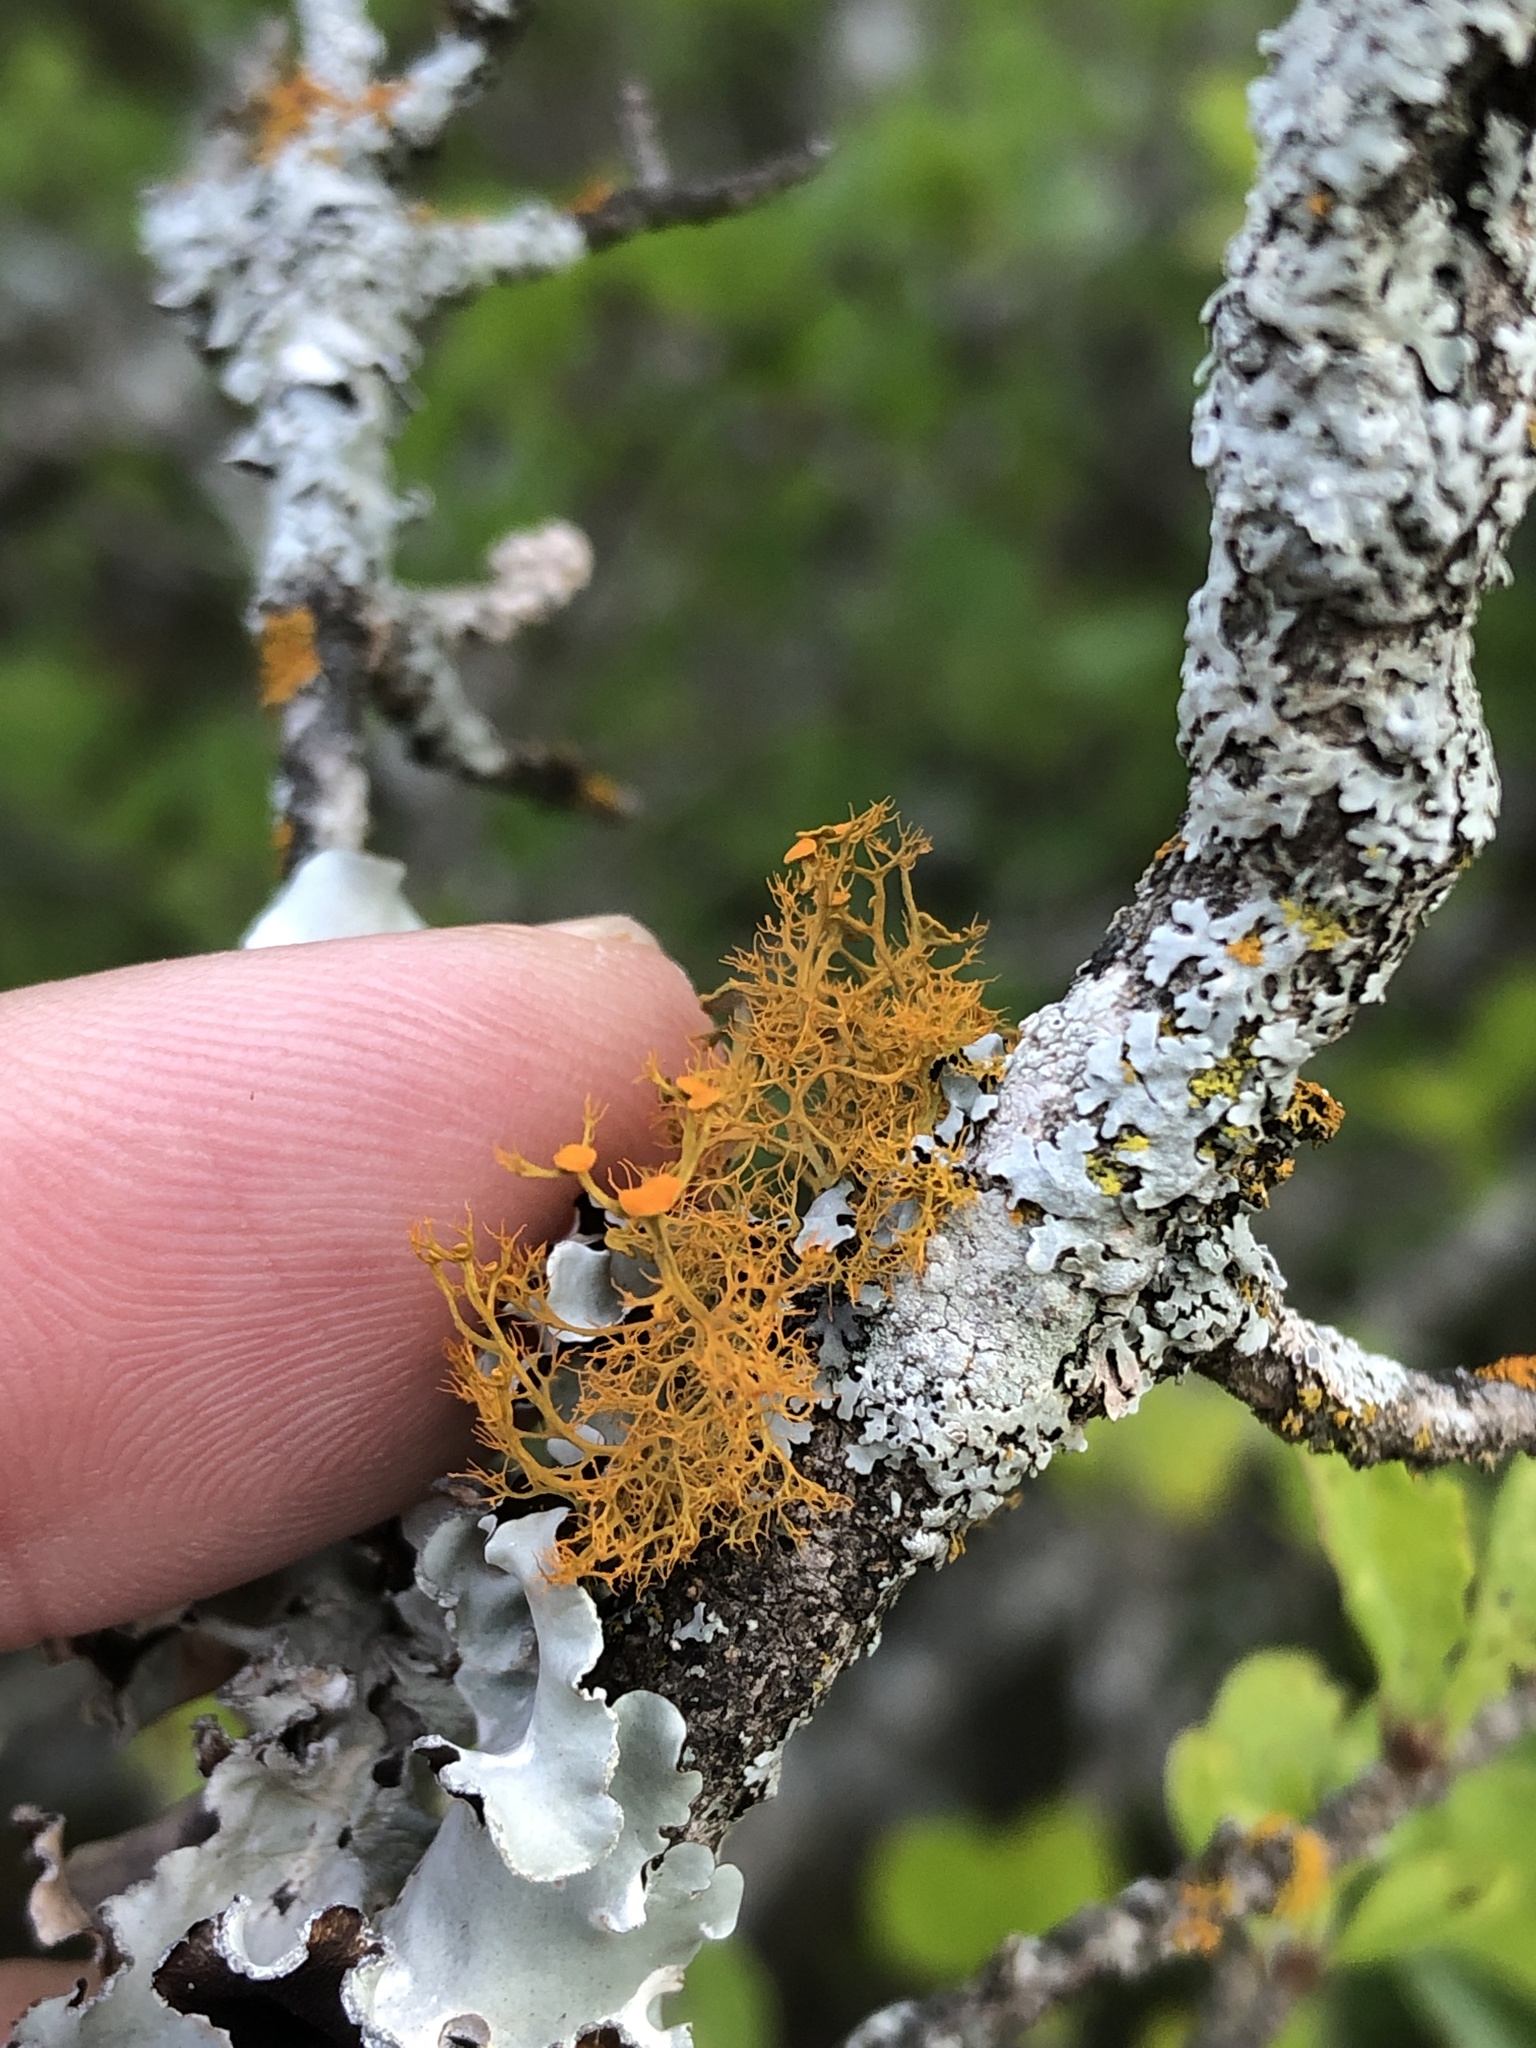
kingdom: Fungi
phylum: Ascomycota
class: Lecanoromycetes
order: Teloschistales
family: Teloschistaceae
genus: Teloschistes
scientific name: Teloschistes exilis
